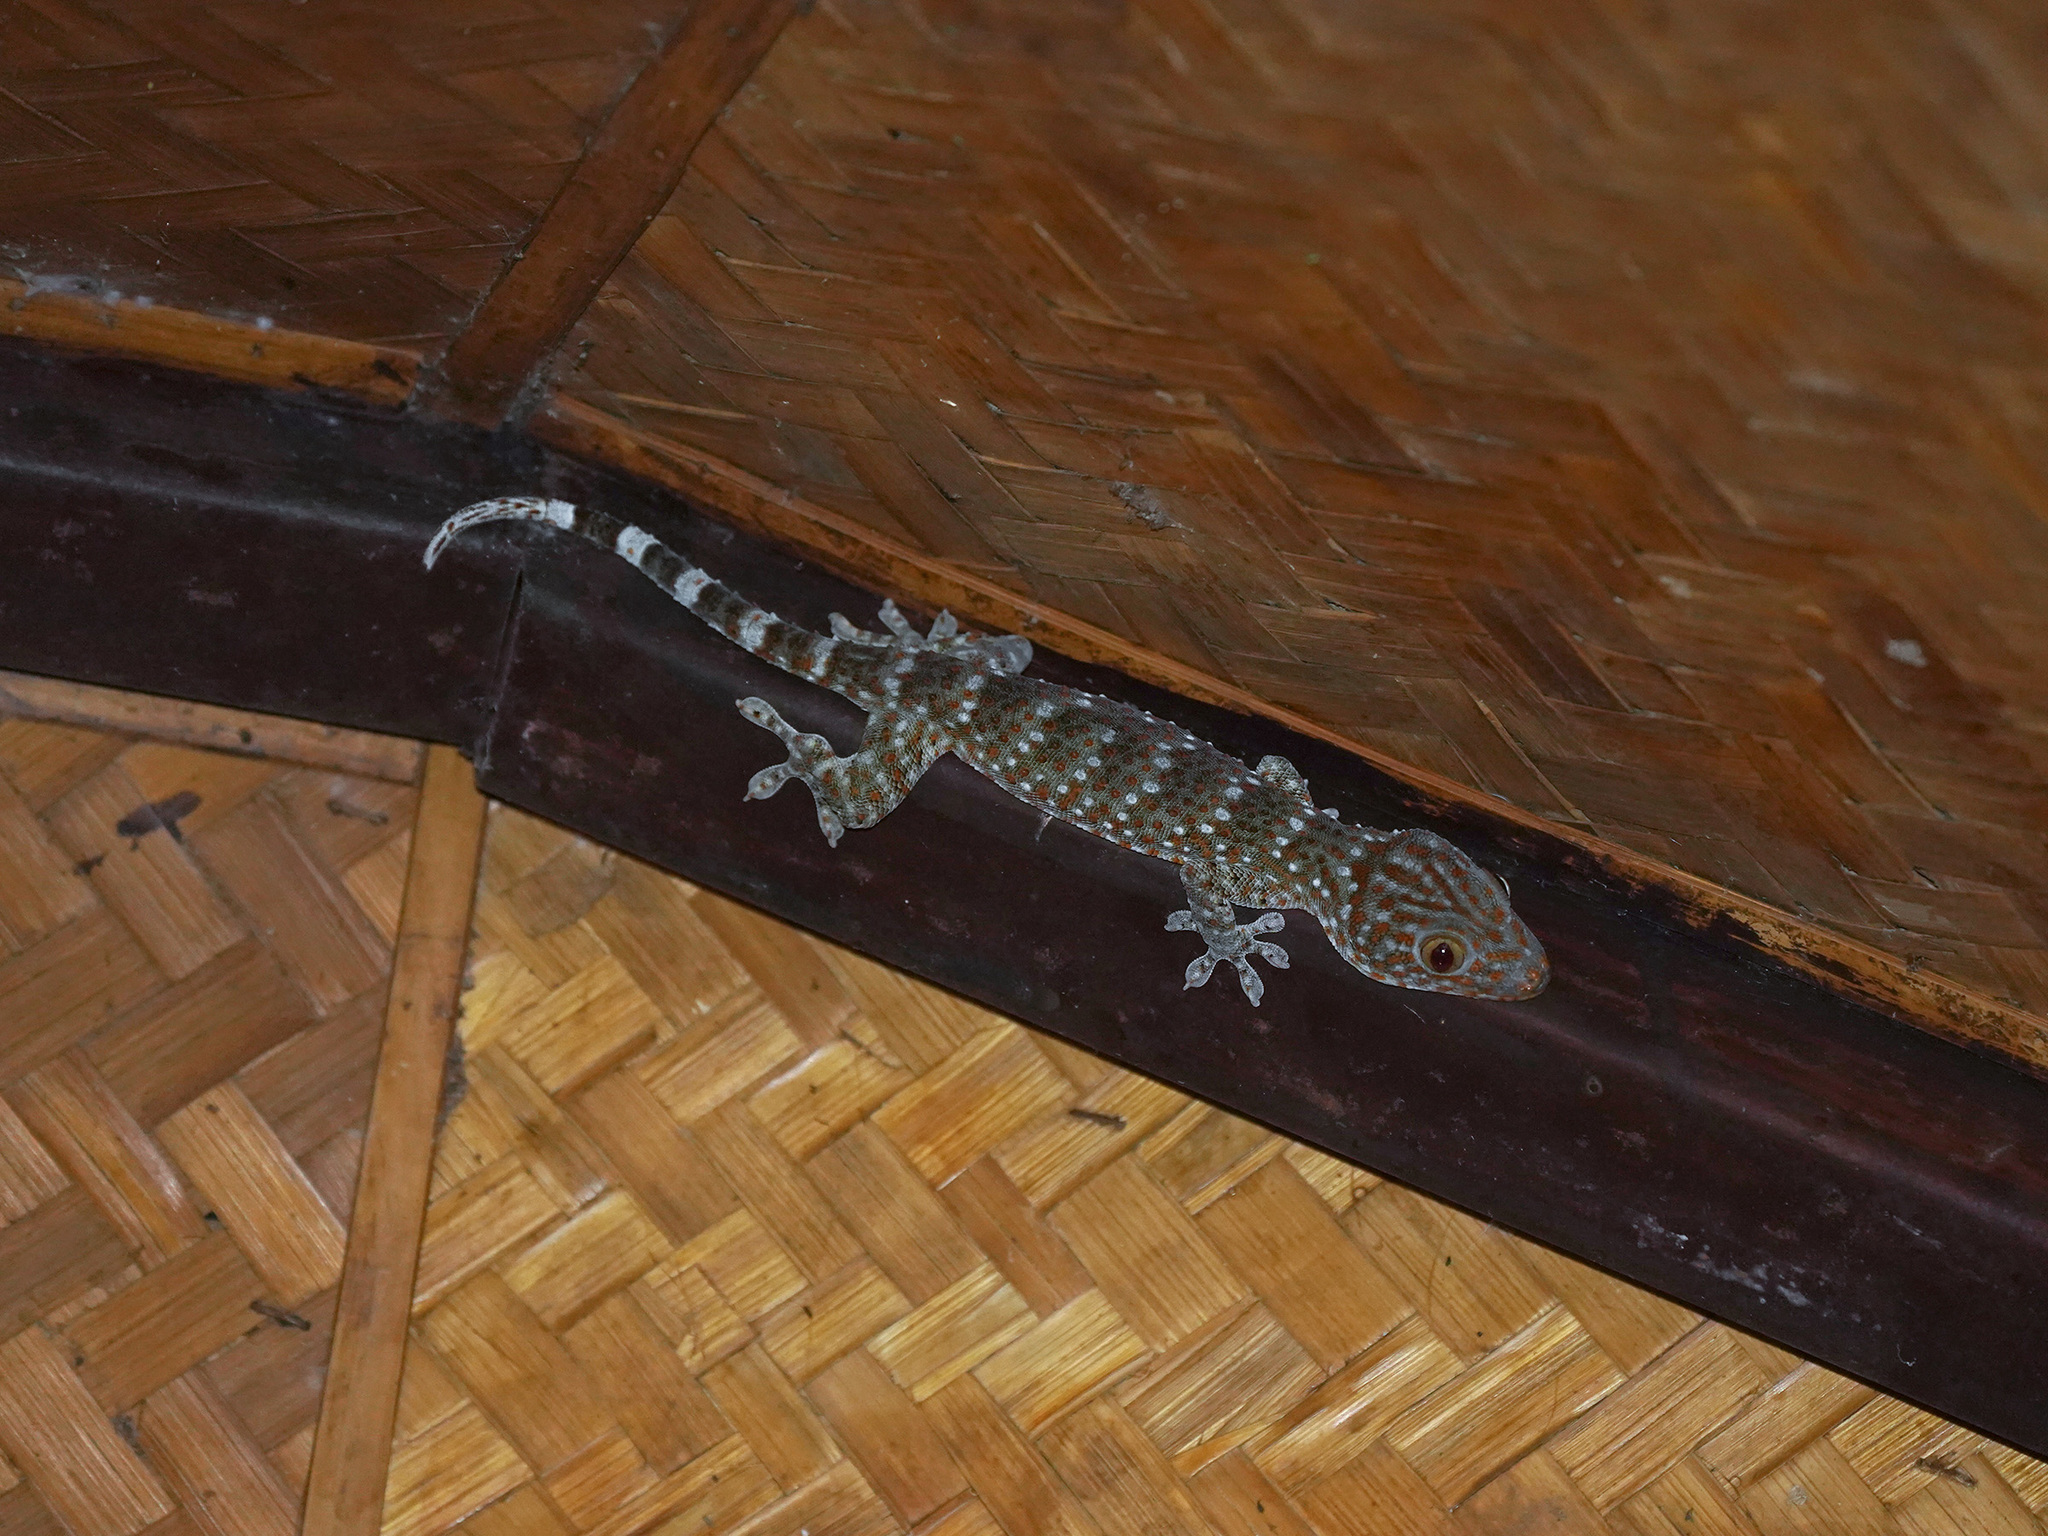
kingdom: Animalia
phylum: Chordata
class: Squamata
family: Gekkonidae
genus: Gekko
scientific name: Gekko gecko
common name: Tokay gecko
